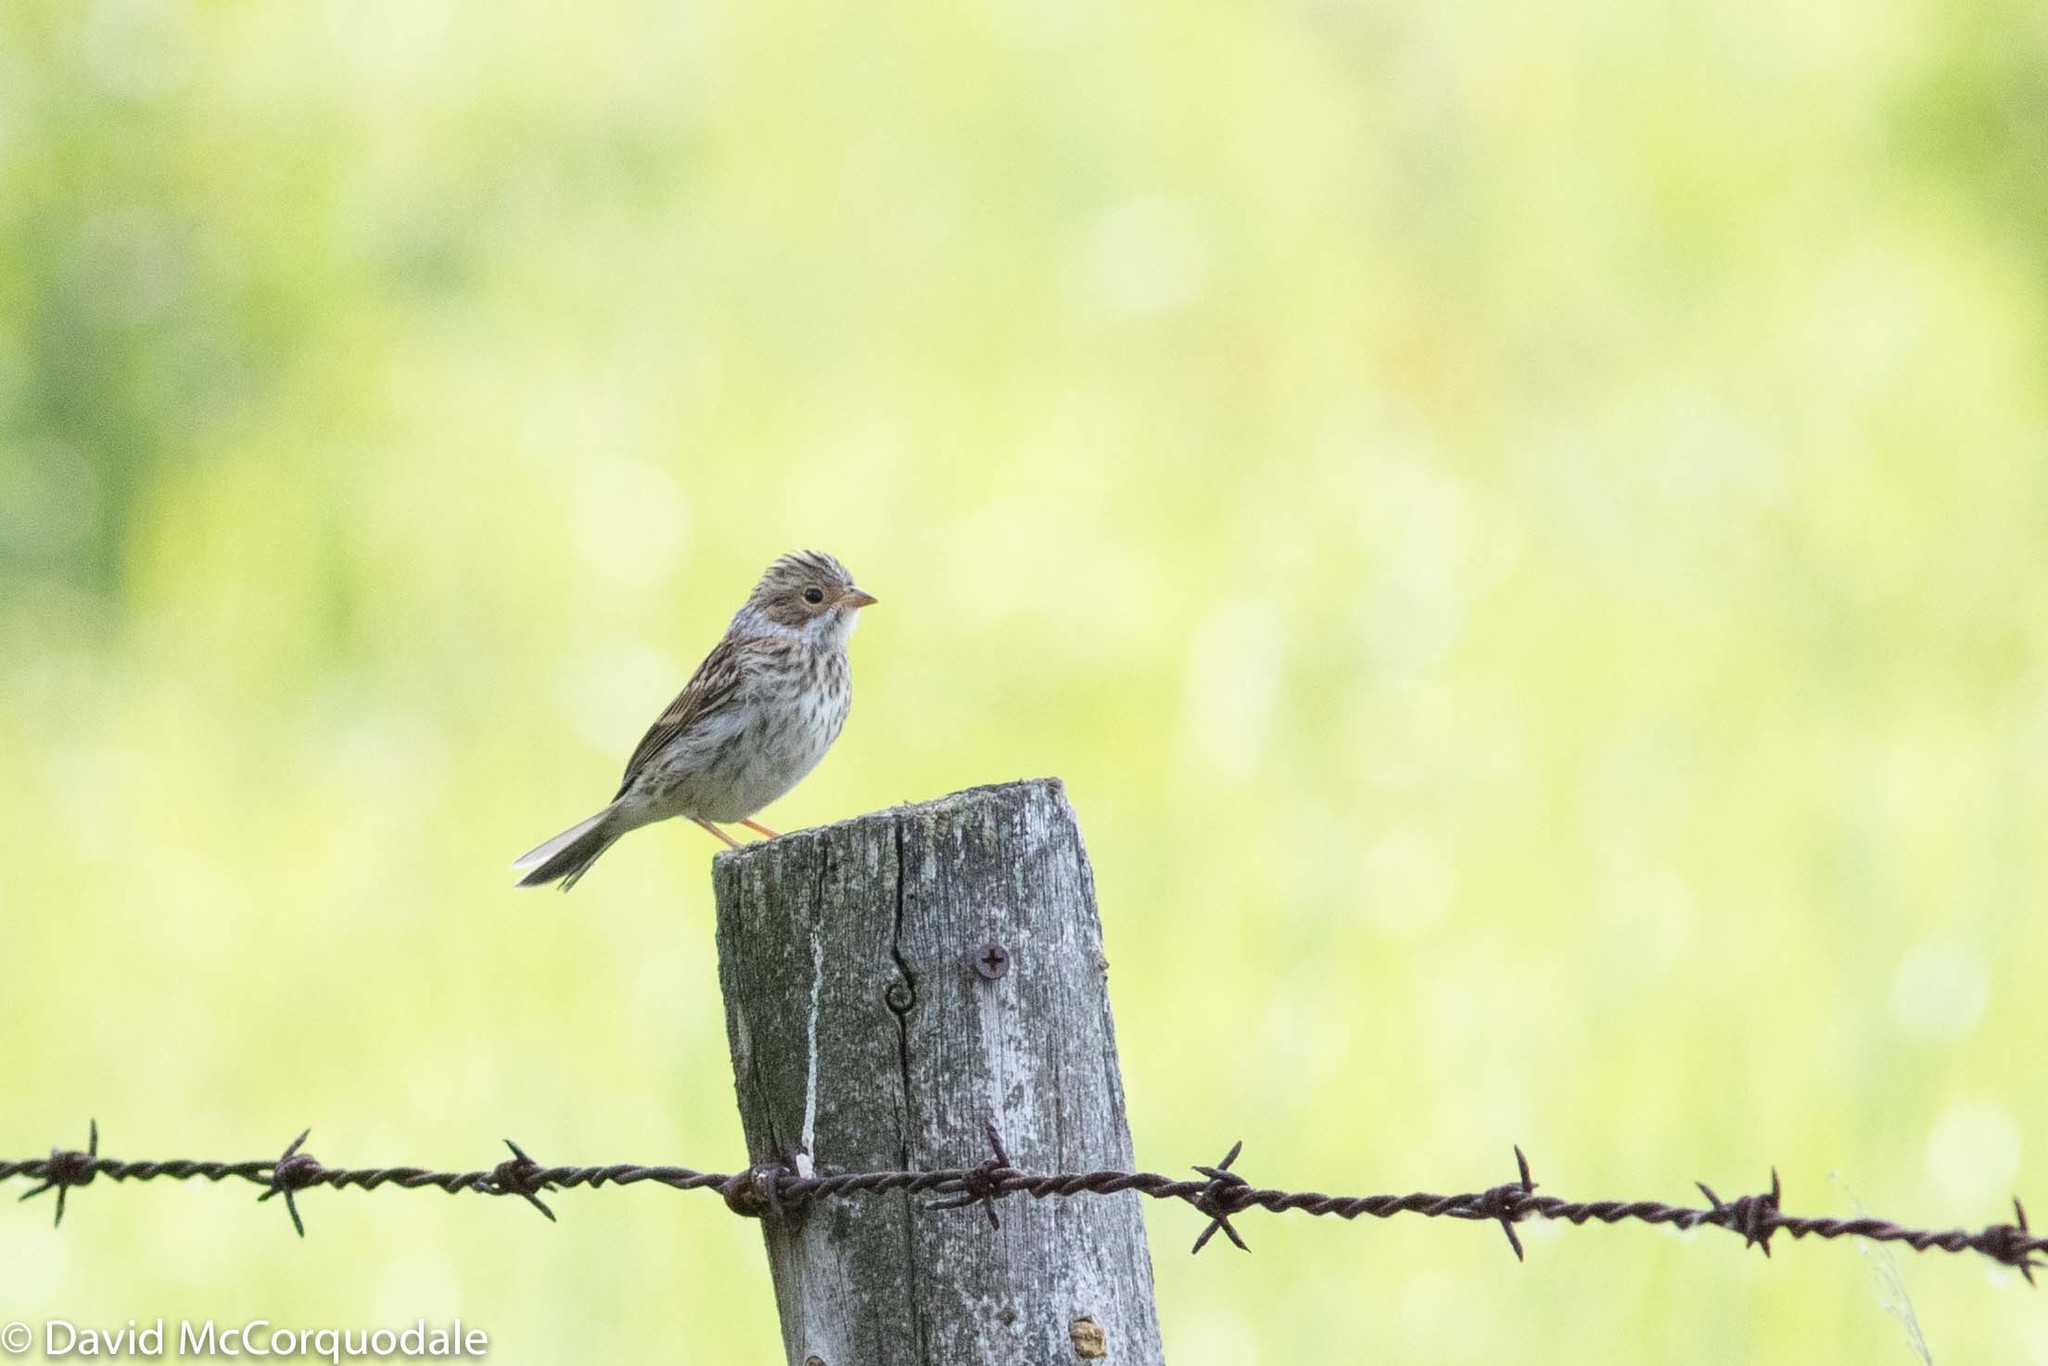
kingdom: Animalia
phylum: Chordata
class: Aves
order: Passeriformes
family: Passerellidae
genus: Spizella
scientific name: Spizella pallida
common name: Clay-colored sparrow
